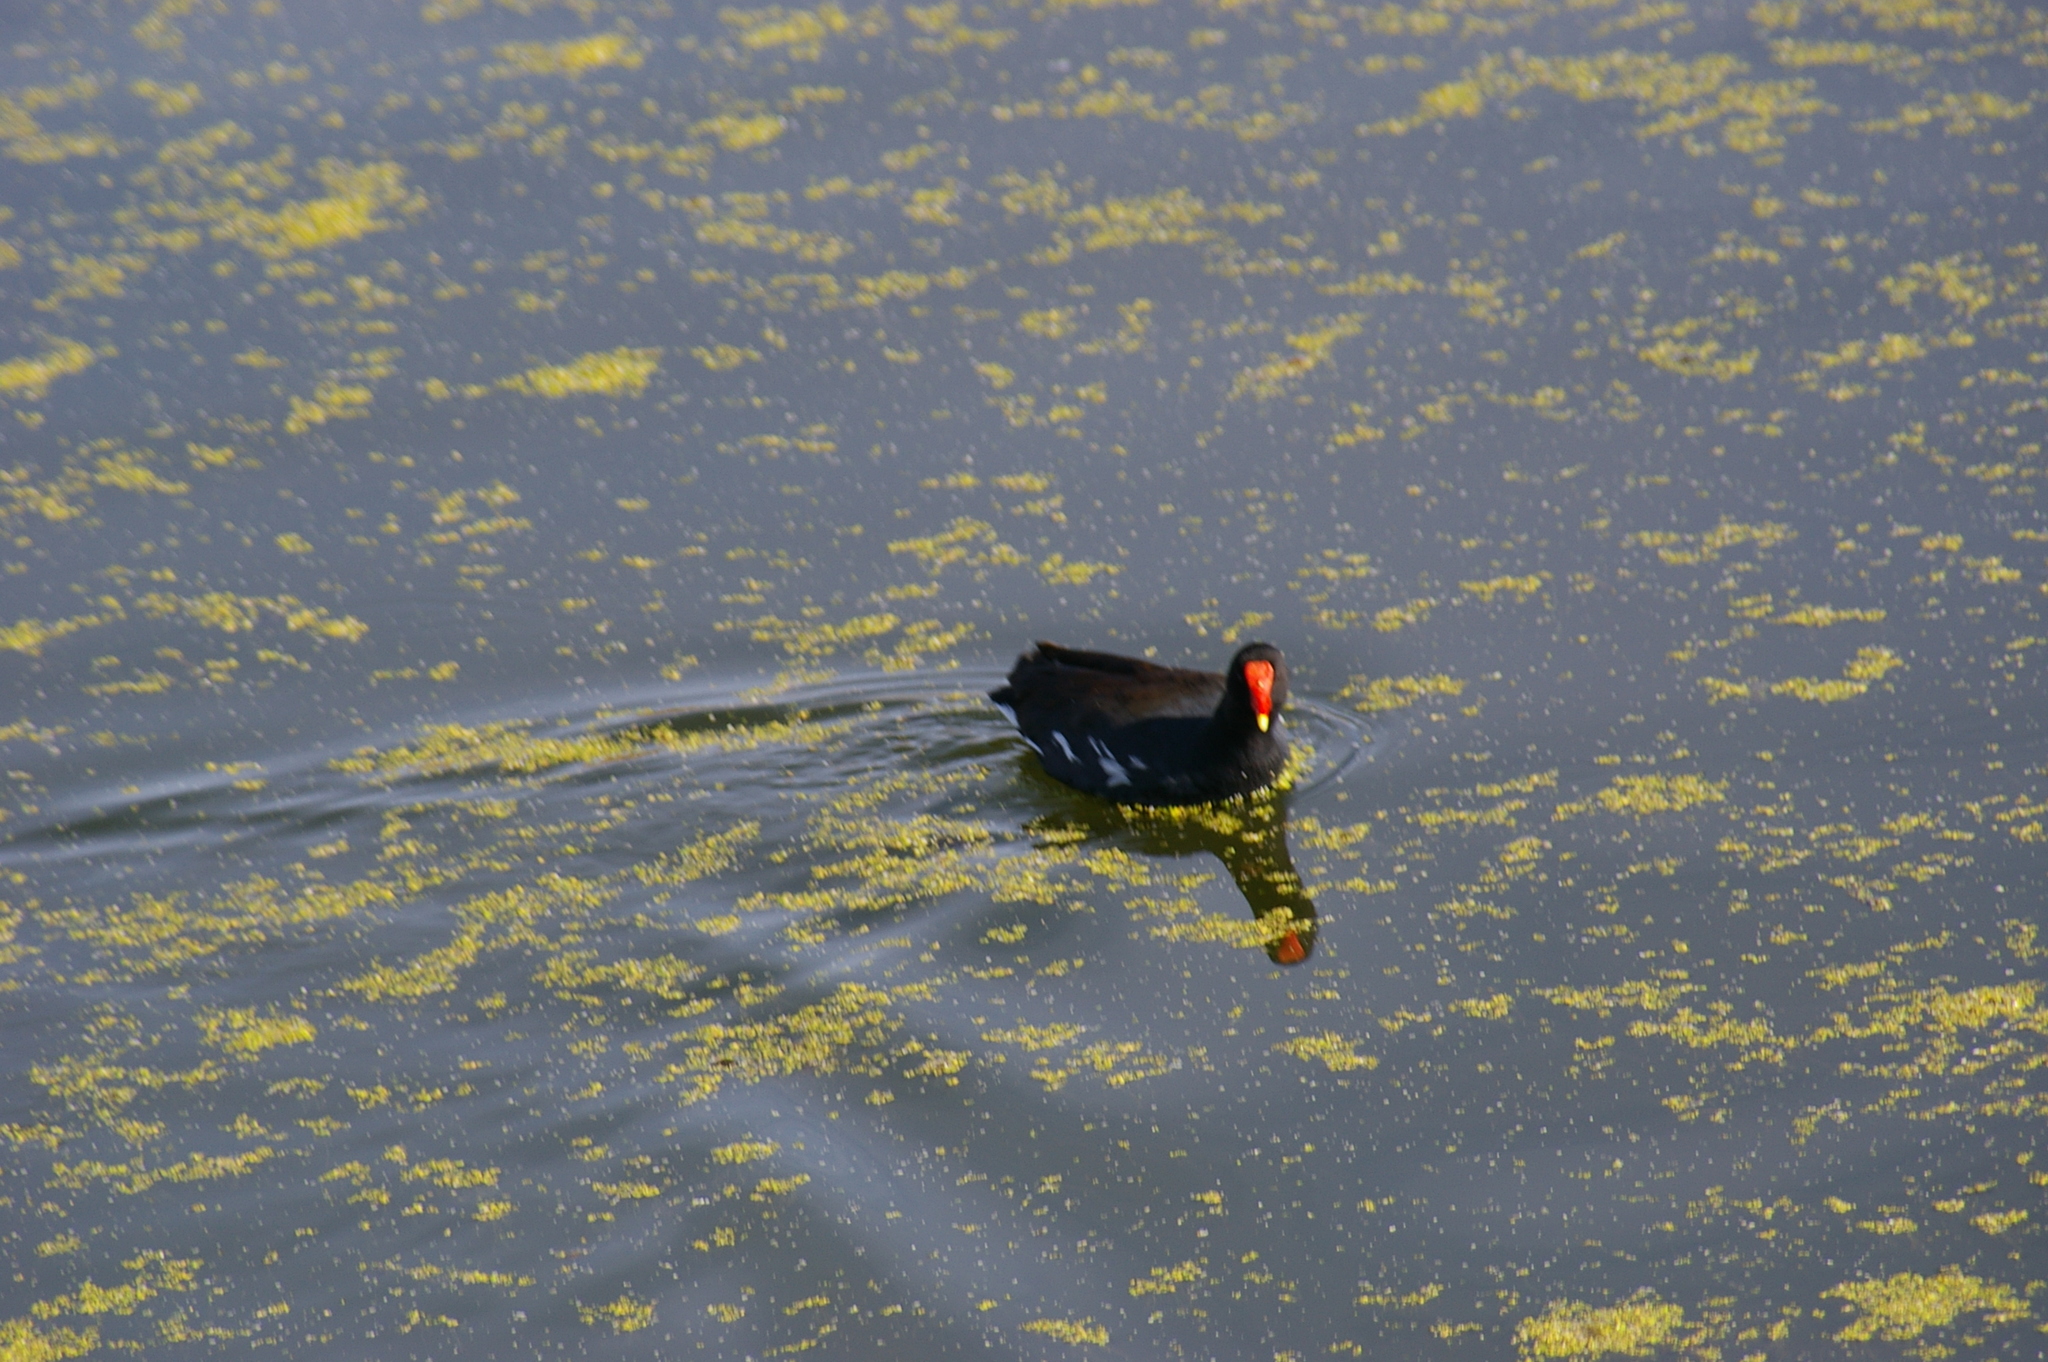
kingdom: Animalia
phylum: Chordata
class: Aves
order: Gruiformes
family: Rallidae
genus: Gallinula
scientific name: Gallinula chloropus
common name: Common moorhen
